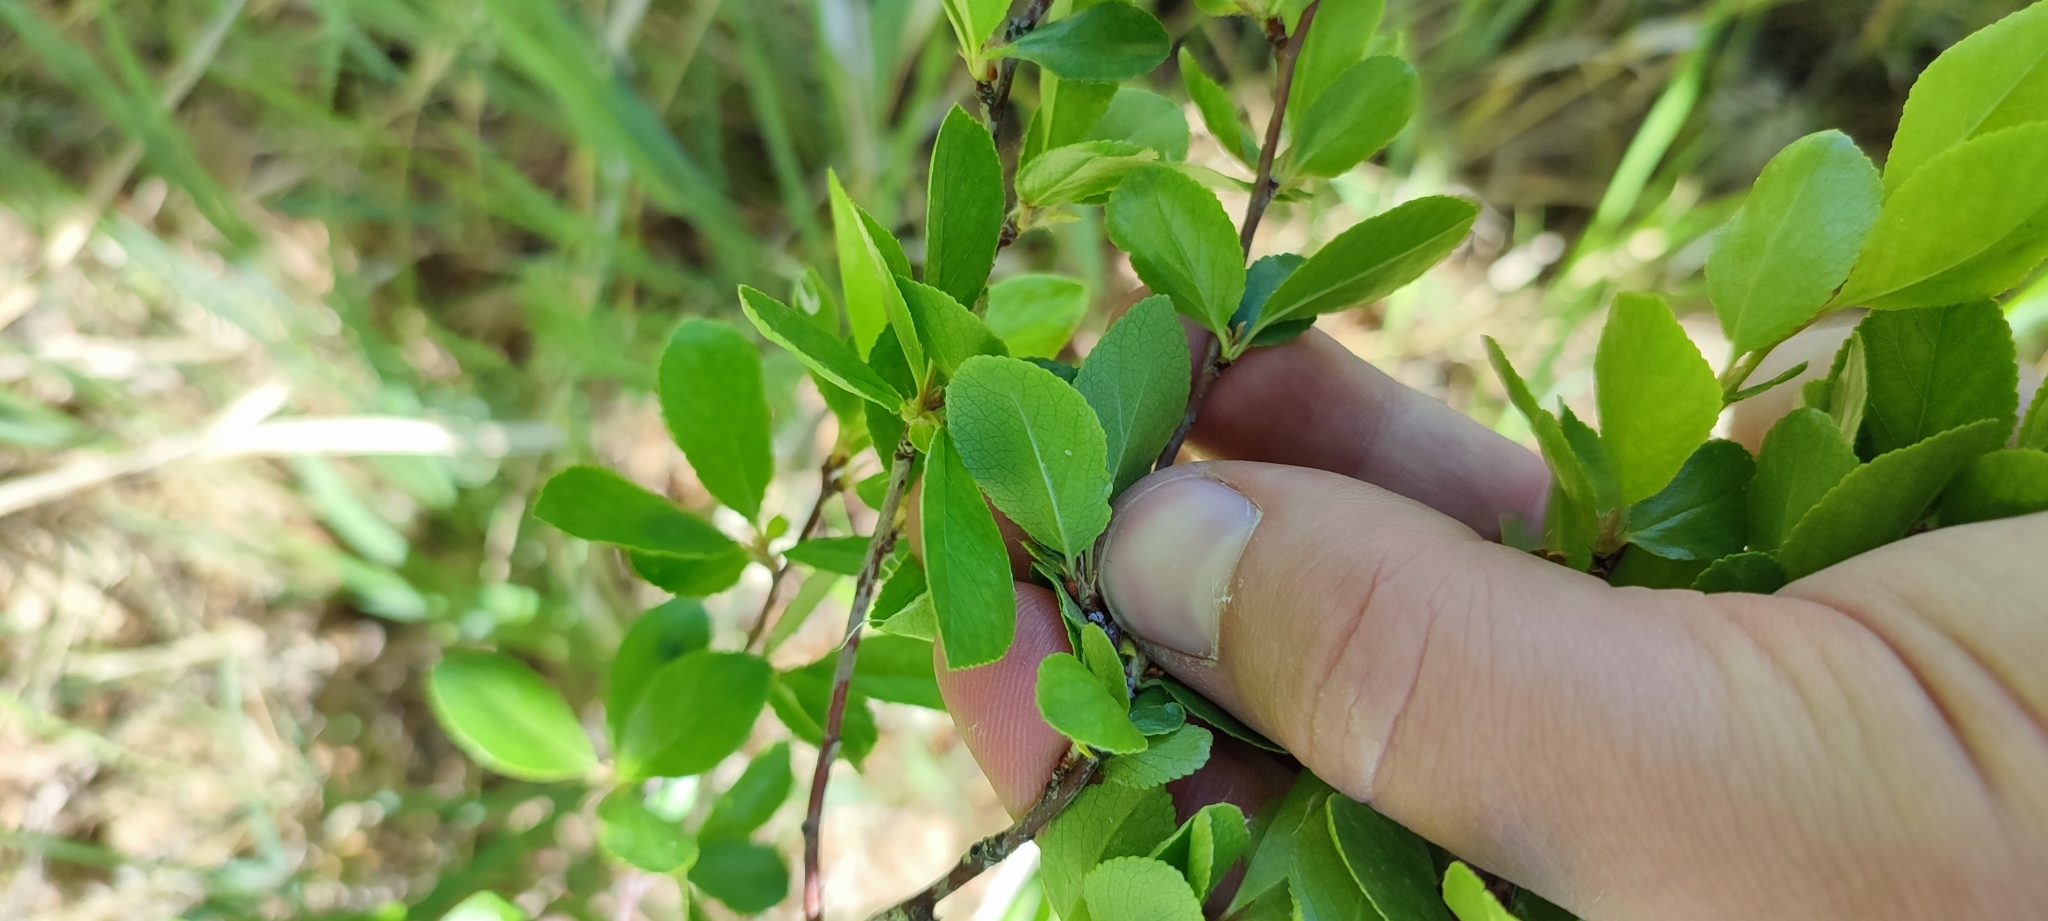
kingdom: Plantae
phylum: Tracheophyta
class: Magnoliopsida
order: Rosales
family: Rosaceae
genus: Prunus
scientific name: Prunus fruticosa
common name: European dwarf cherry
